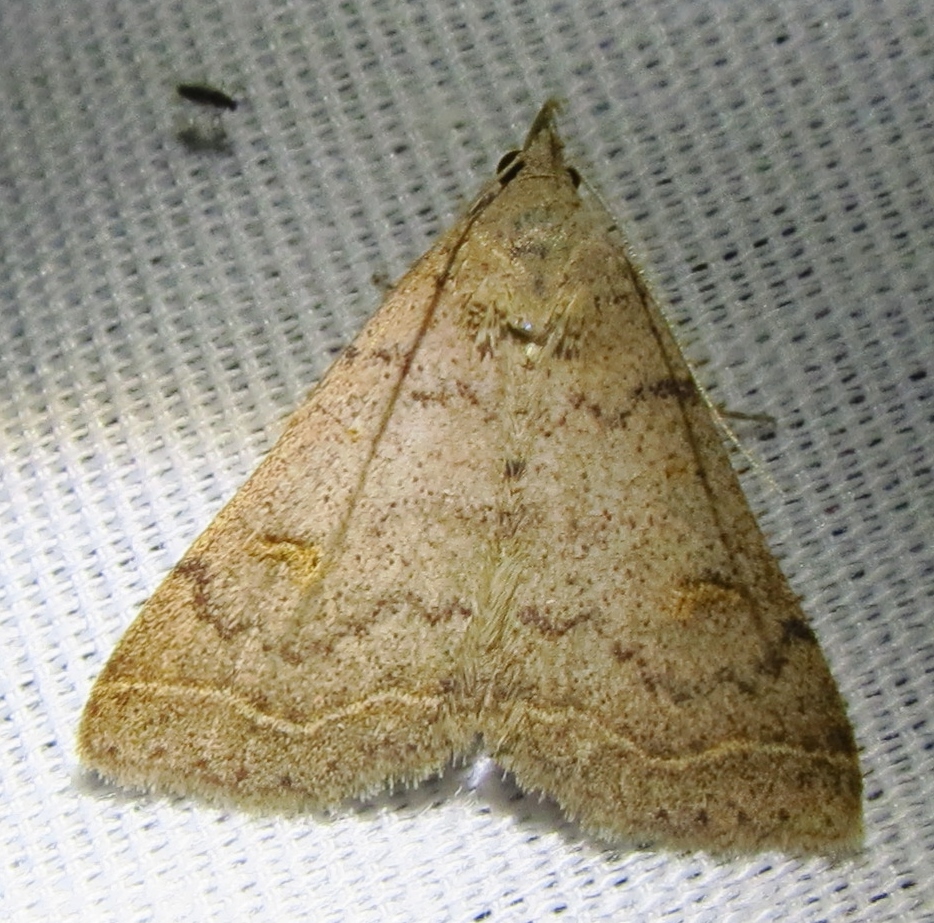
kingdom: Animalia
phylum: Arthropoda
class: Insecta
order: Lepidoptera
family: Erebidae
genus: Bleptina
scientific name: Bleptina caradrinalis
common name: Bent-winged owlet
